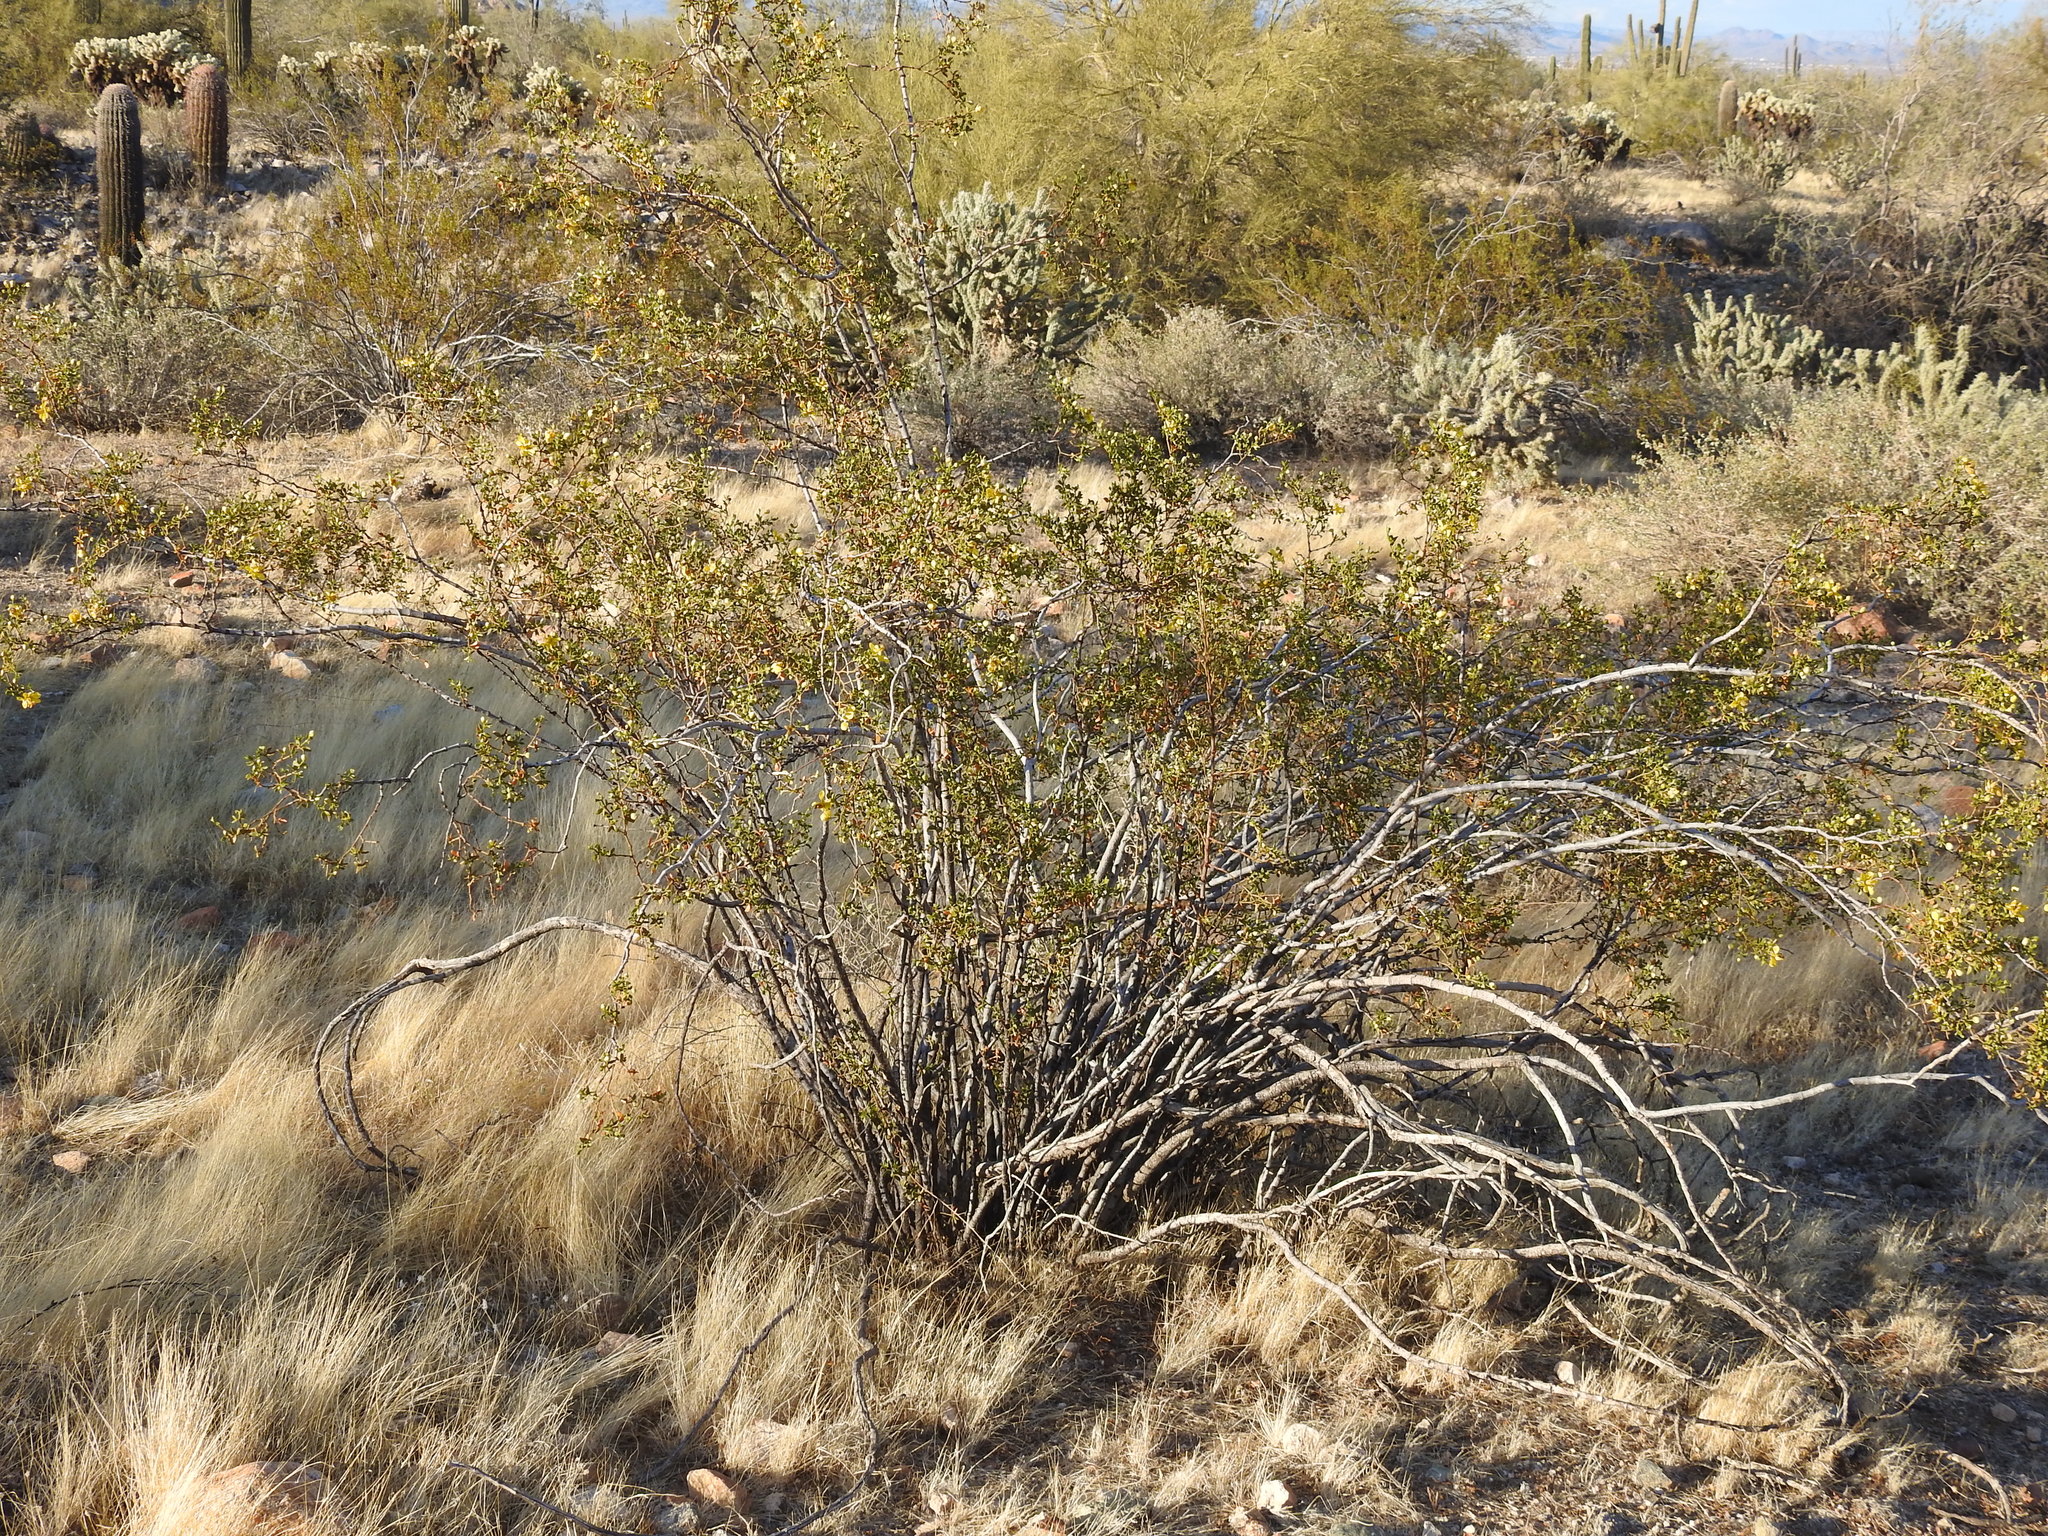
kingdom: Plantae
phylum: Tracheophyta
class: Magnoliopsida
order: Zygophyllales
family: Zygophyllaceae
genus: Larrea
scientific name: Larrea tridentata
